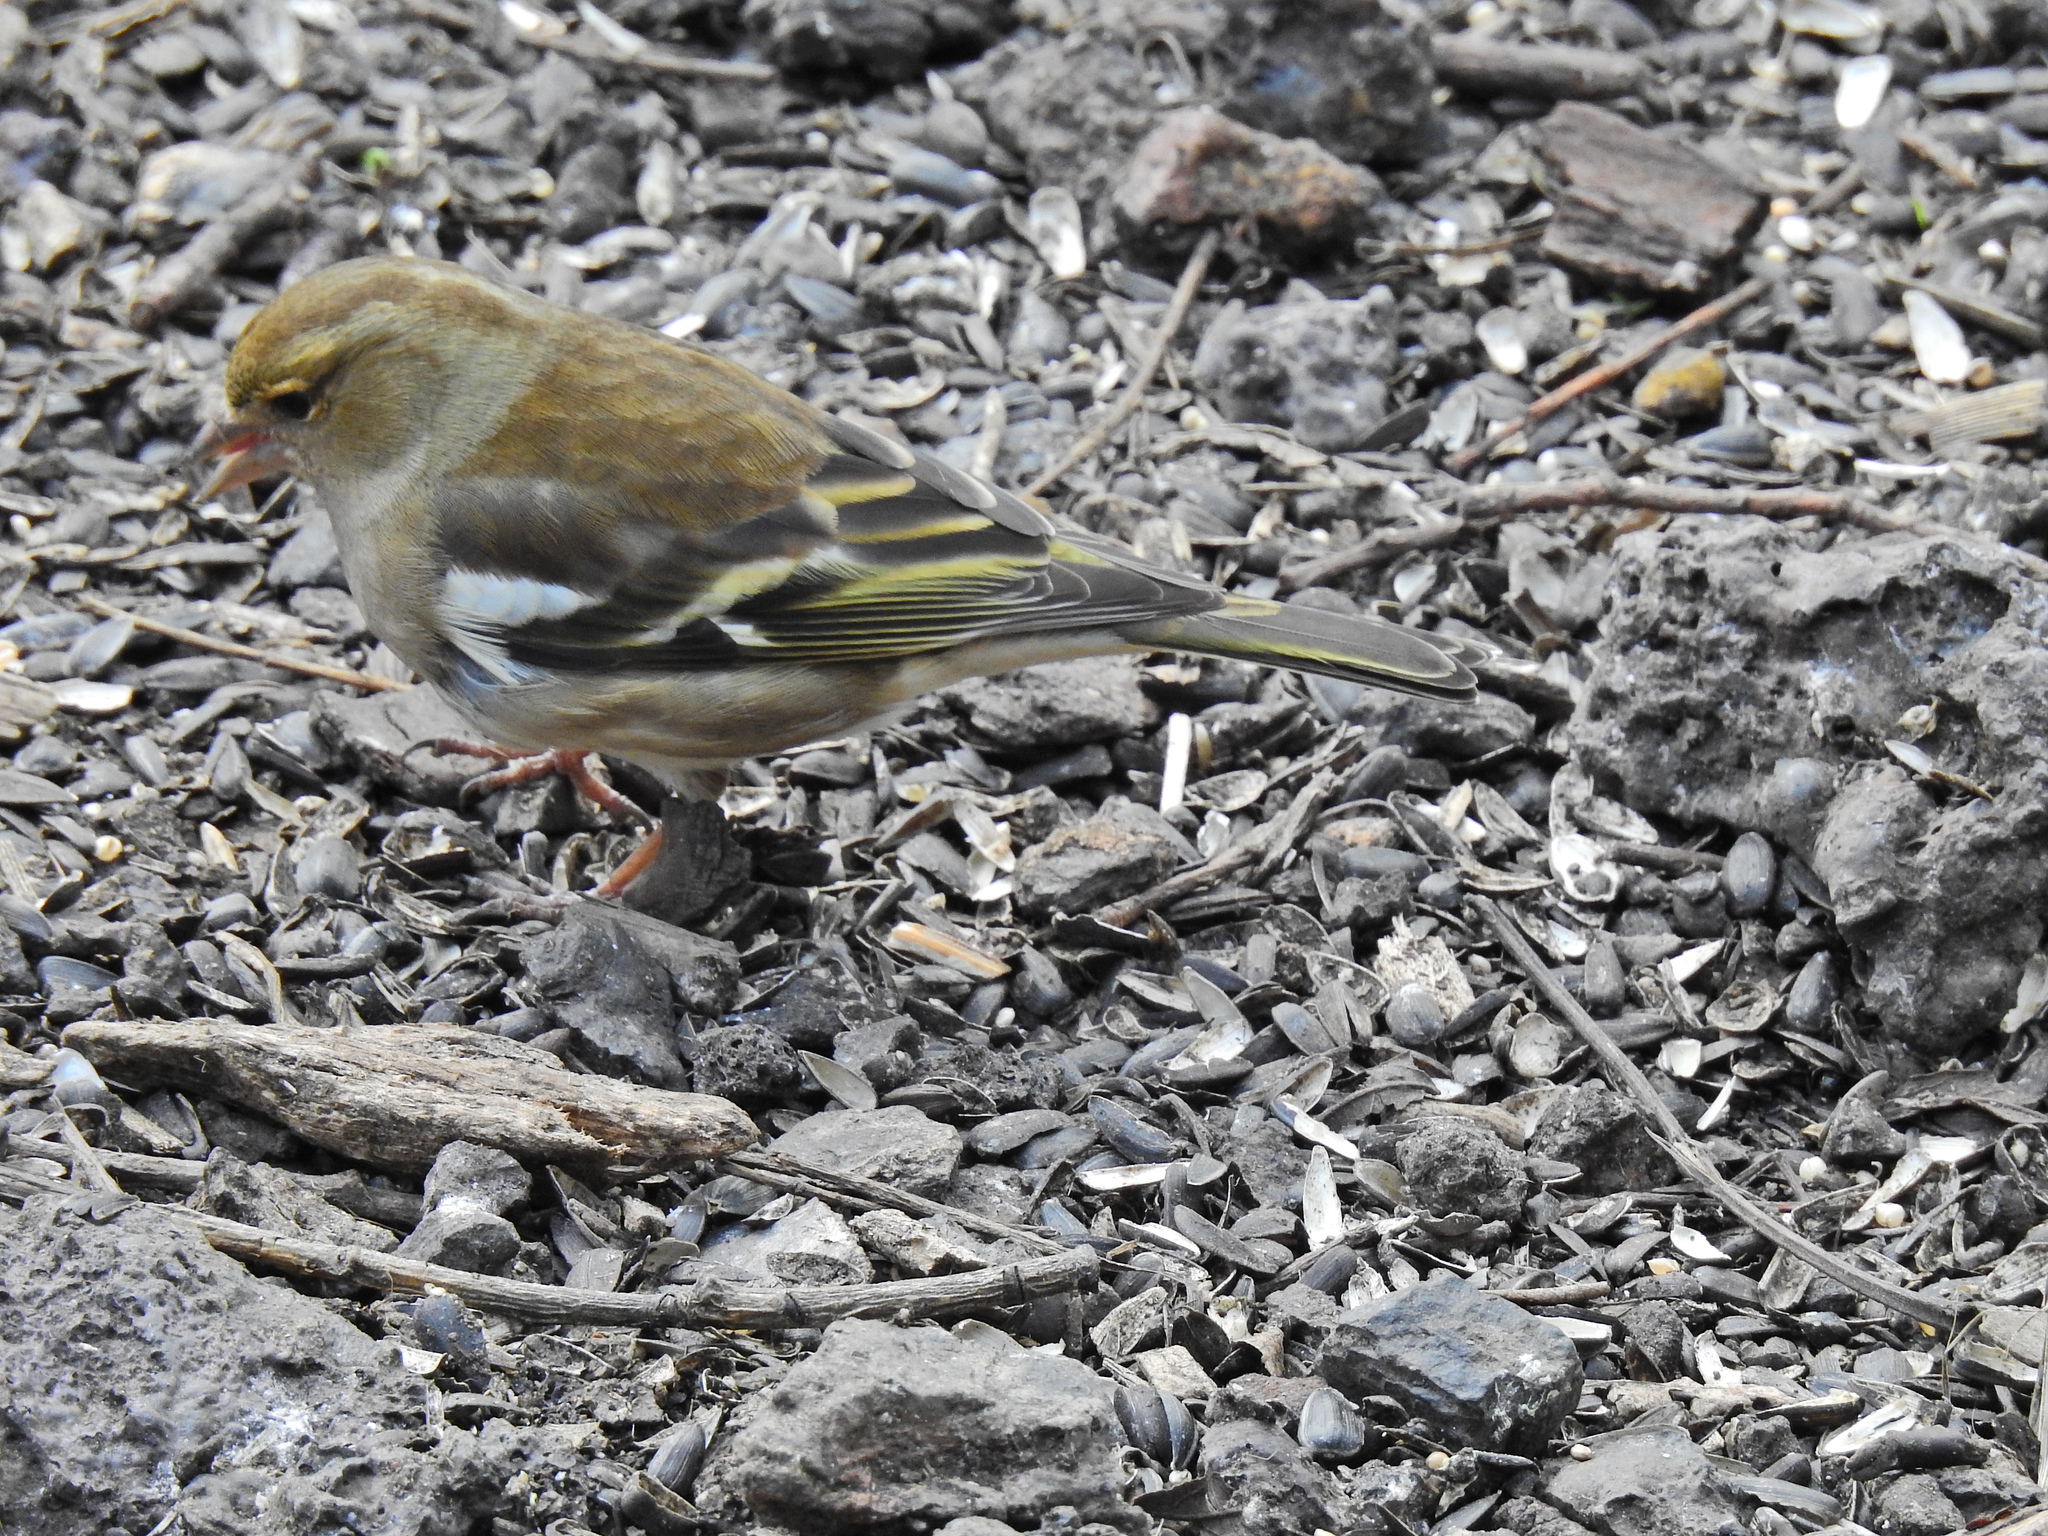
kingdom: Animalia
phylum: Chordata
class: Aves
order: Passeriformes
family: Fringillidae
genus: Fringilla
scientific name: Fringilla coelebs
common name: Common chaffinch
